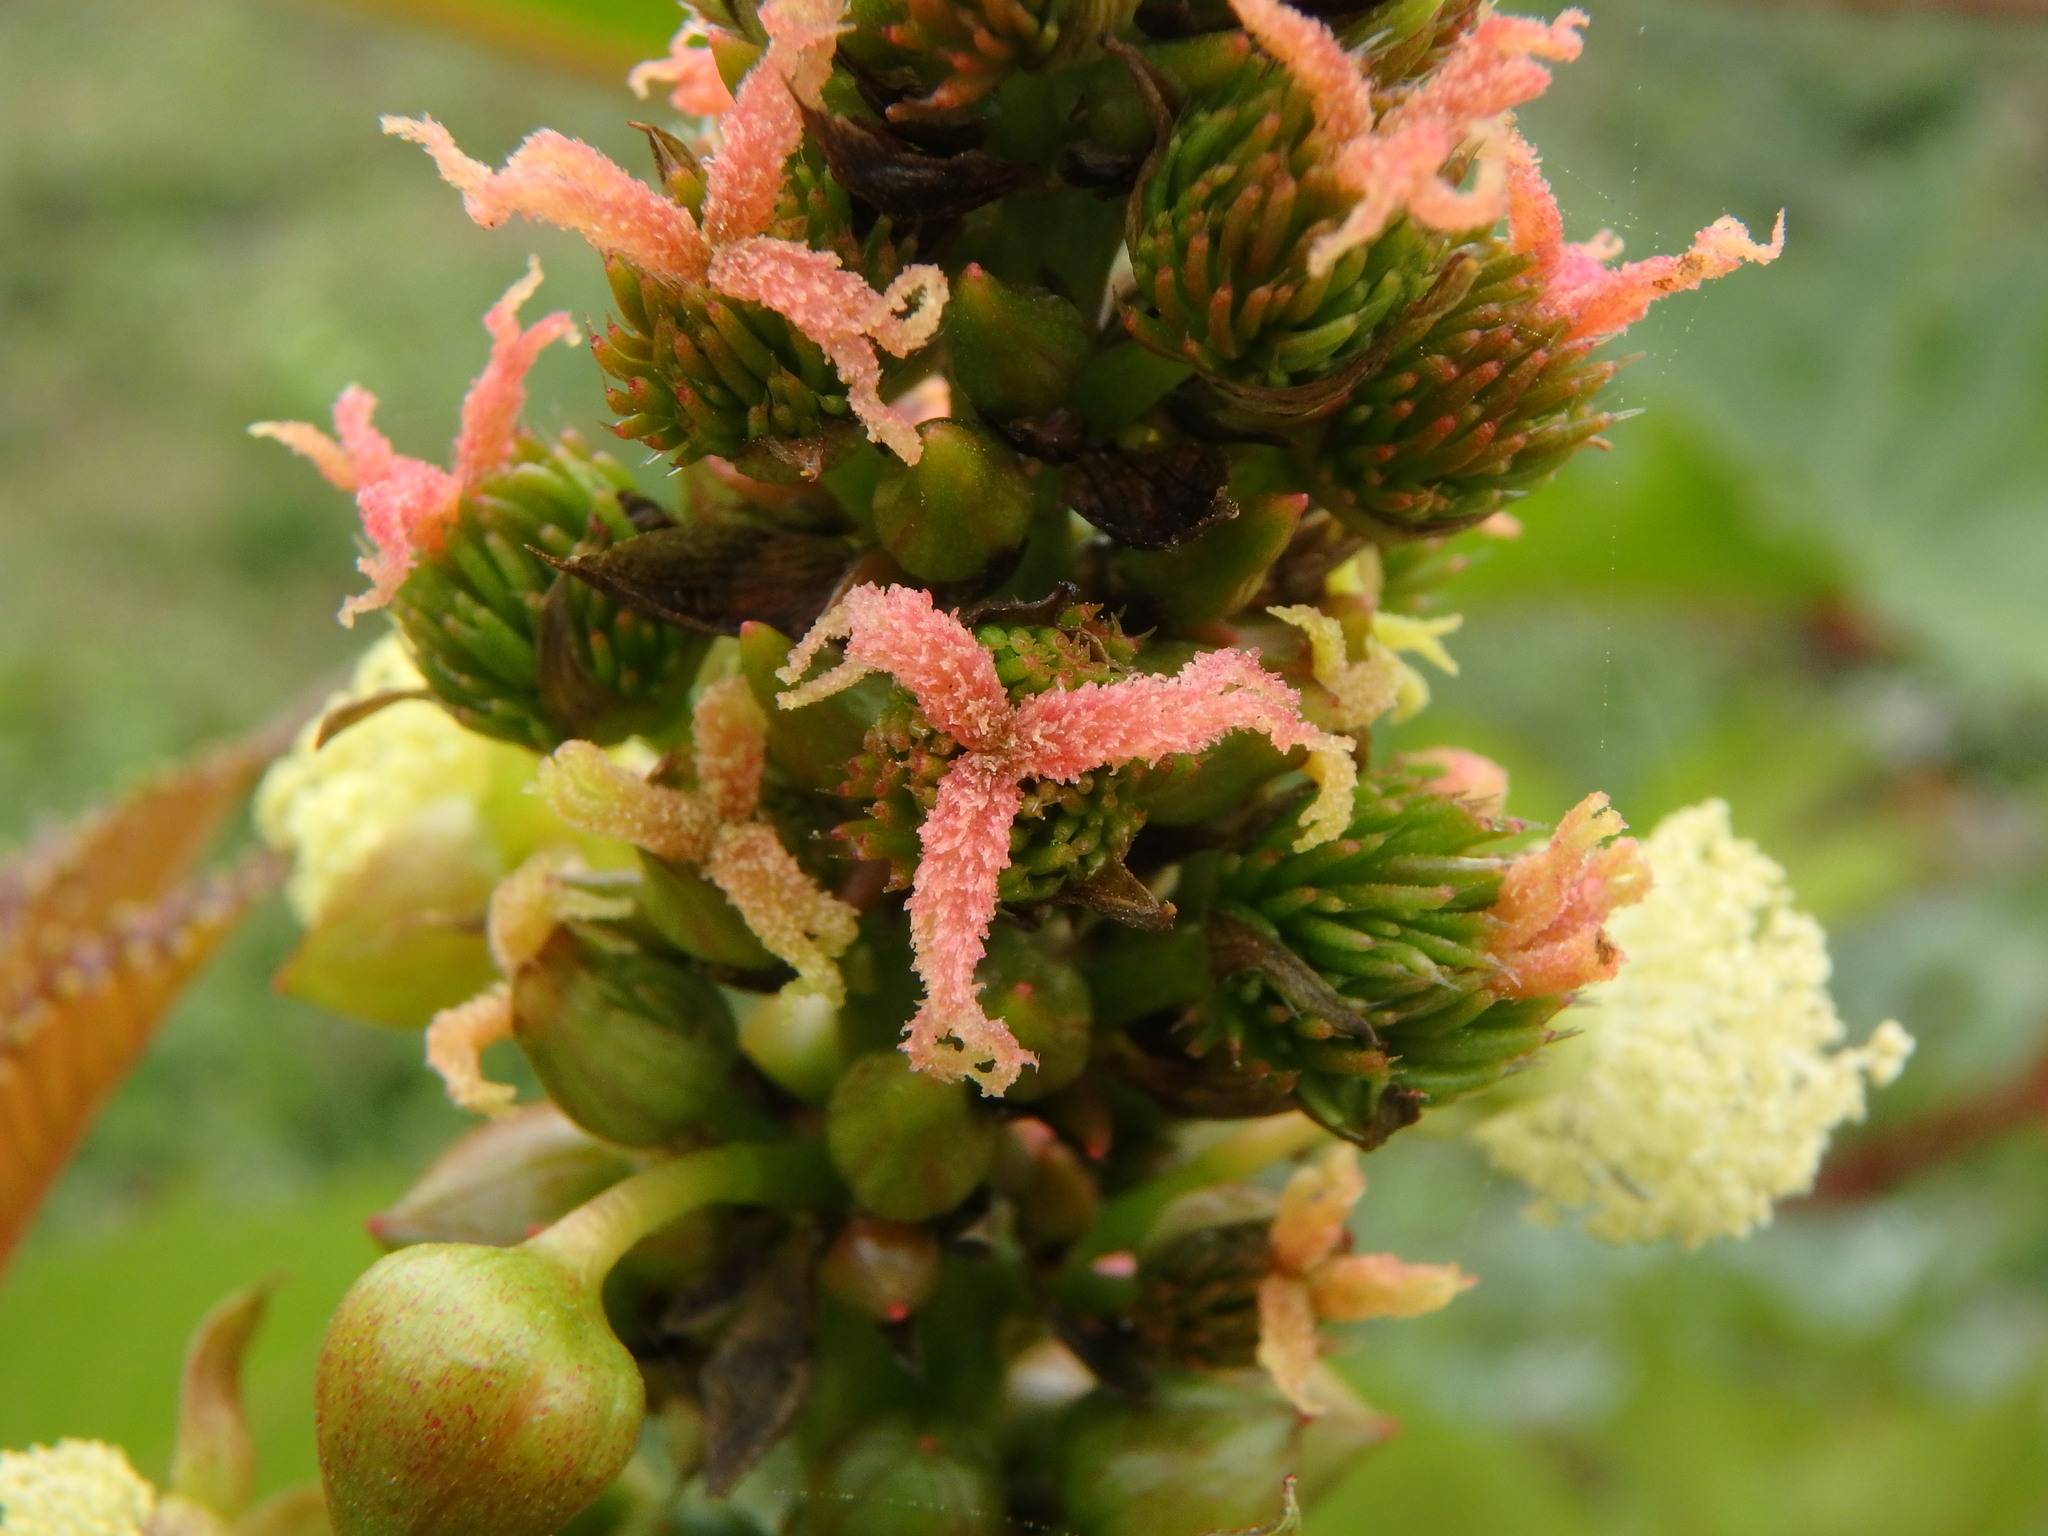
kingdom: Plantae
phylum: Tracheophyta
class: Magnoliopsida
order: Malpighiales
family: Euphorbiaceae
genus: Ricinus
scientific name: Ricinus communis
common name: Castor-oil-plant
